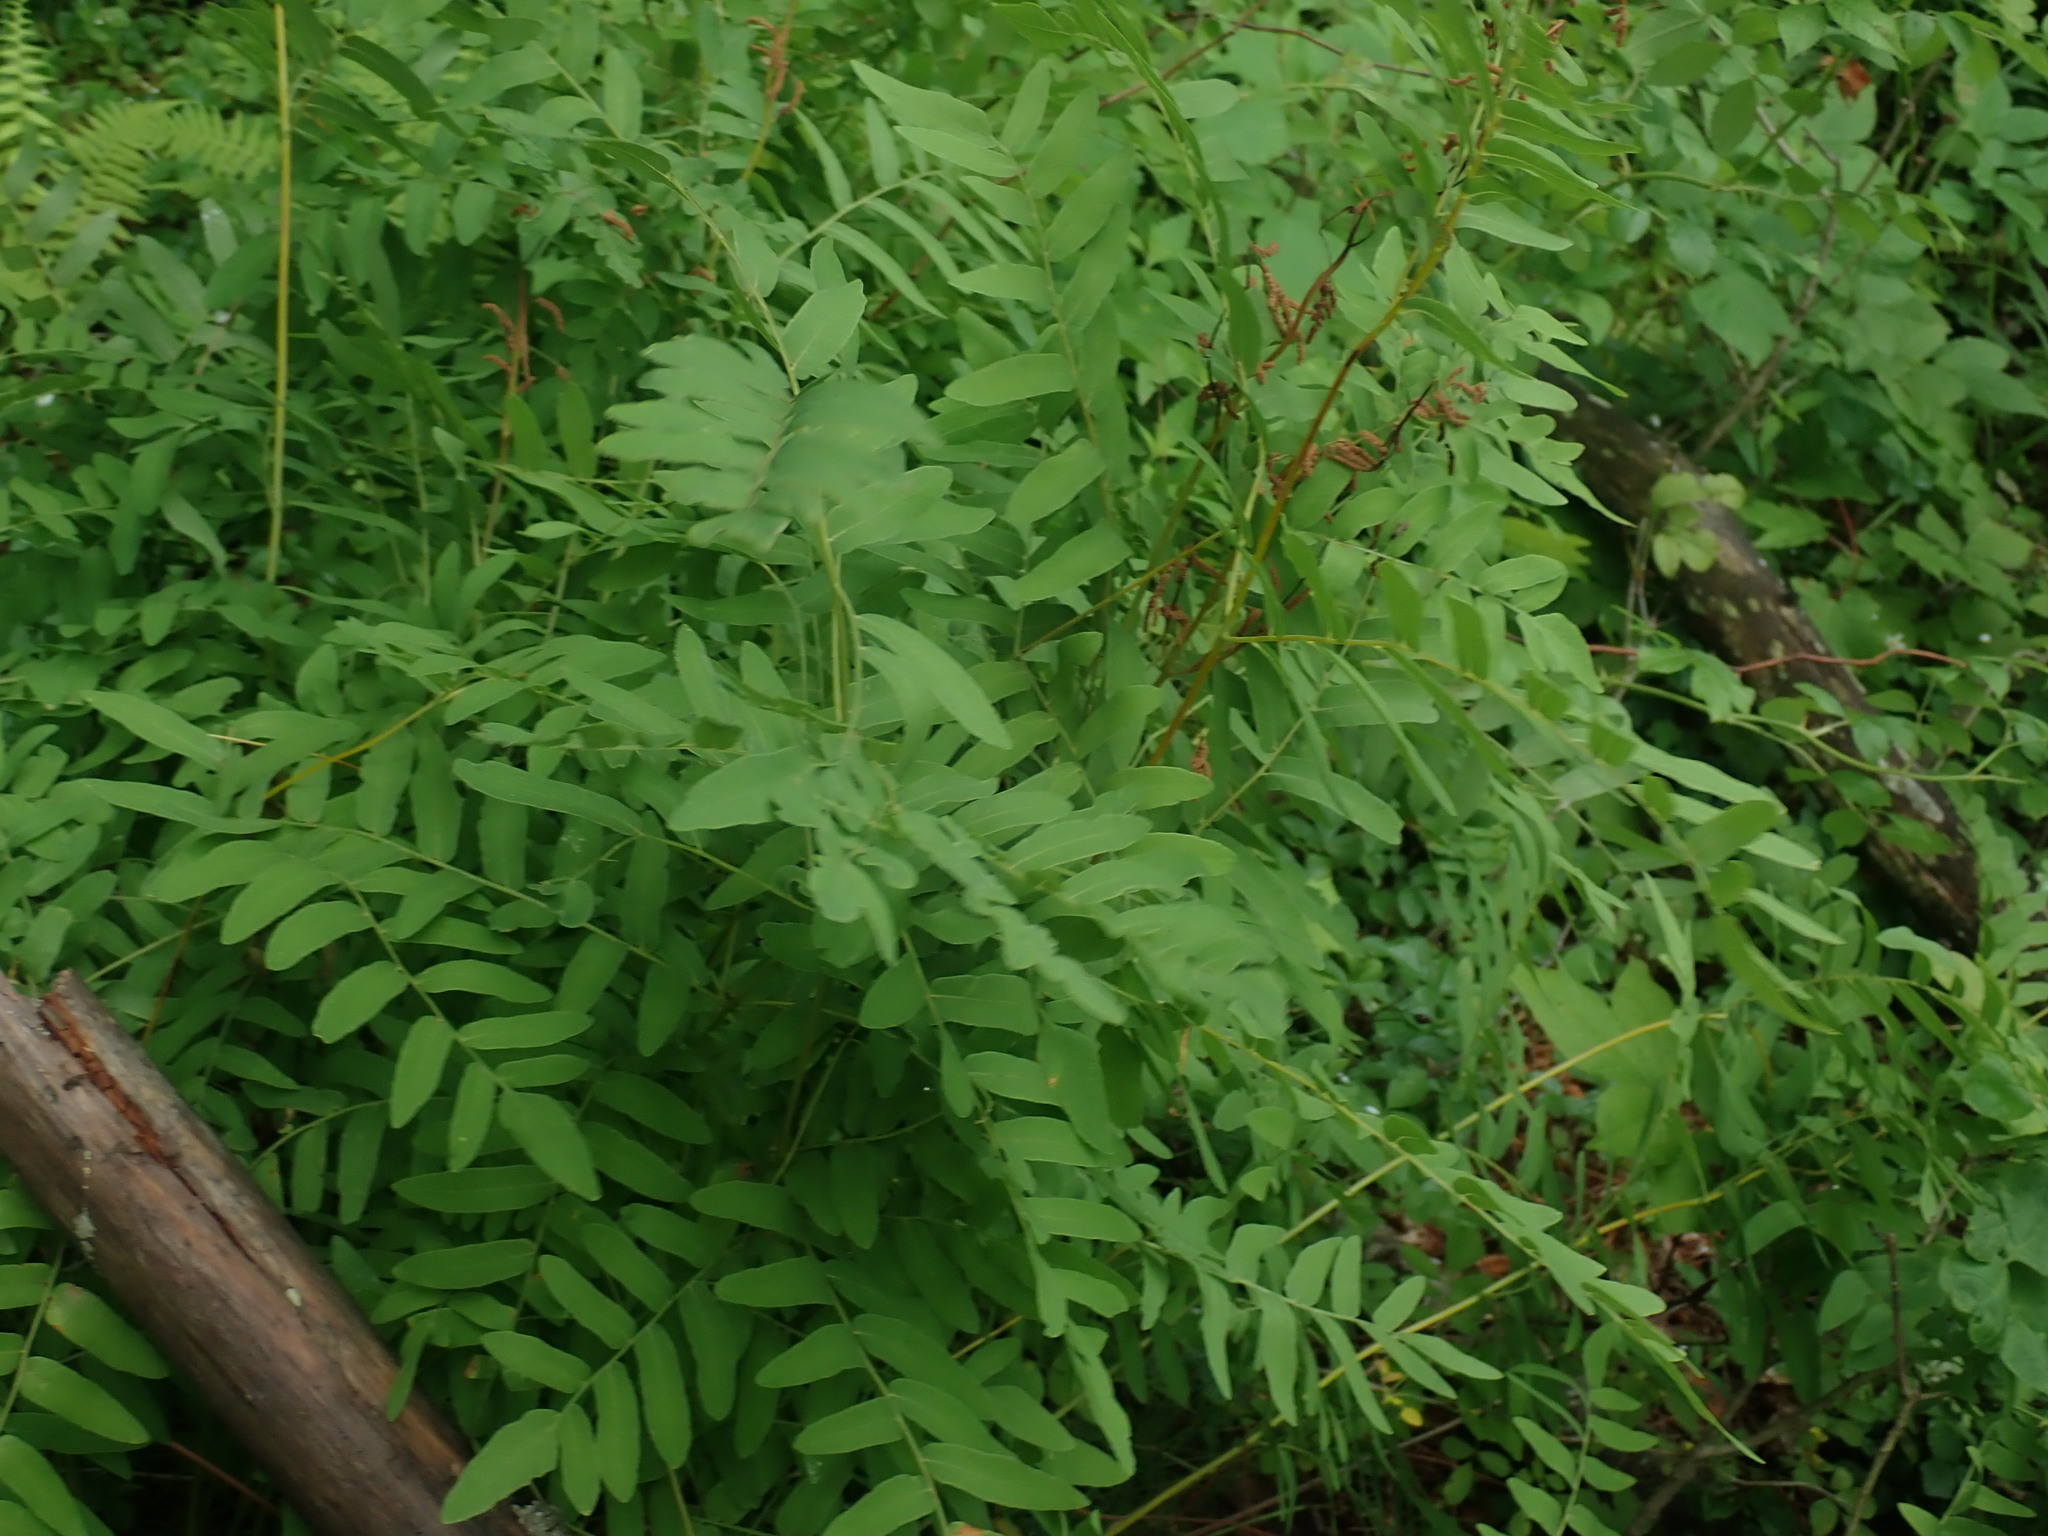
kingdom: Plantae
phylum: Tracheophyta
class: Polypodiopsida
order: Osmundales
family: Osmundaceae
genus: Osmunda
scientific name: Osmunda spectabilis
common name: American royal fern
